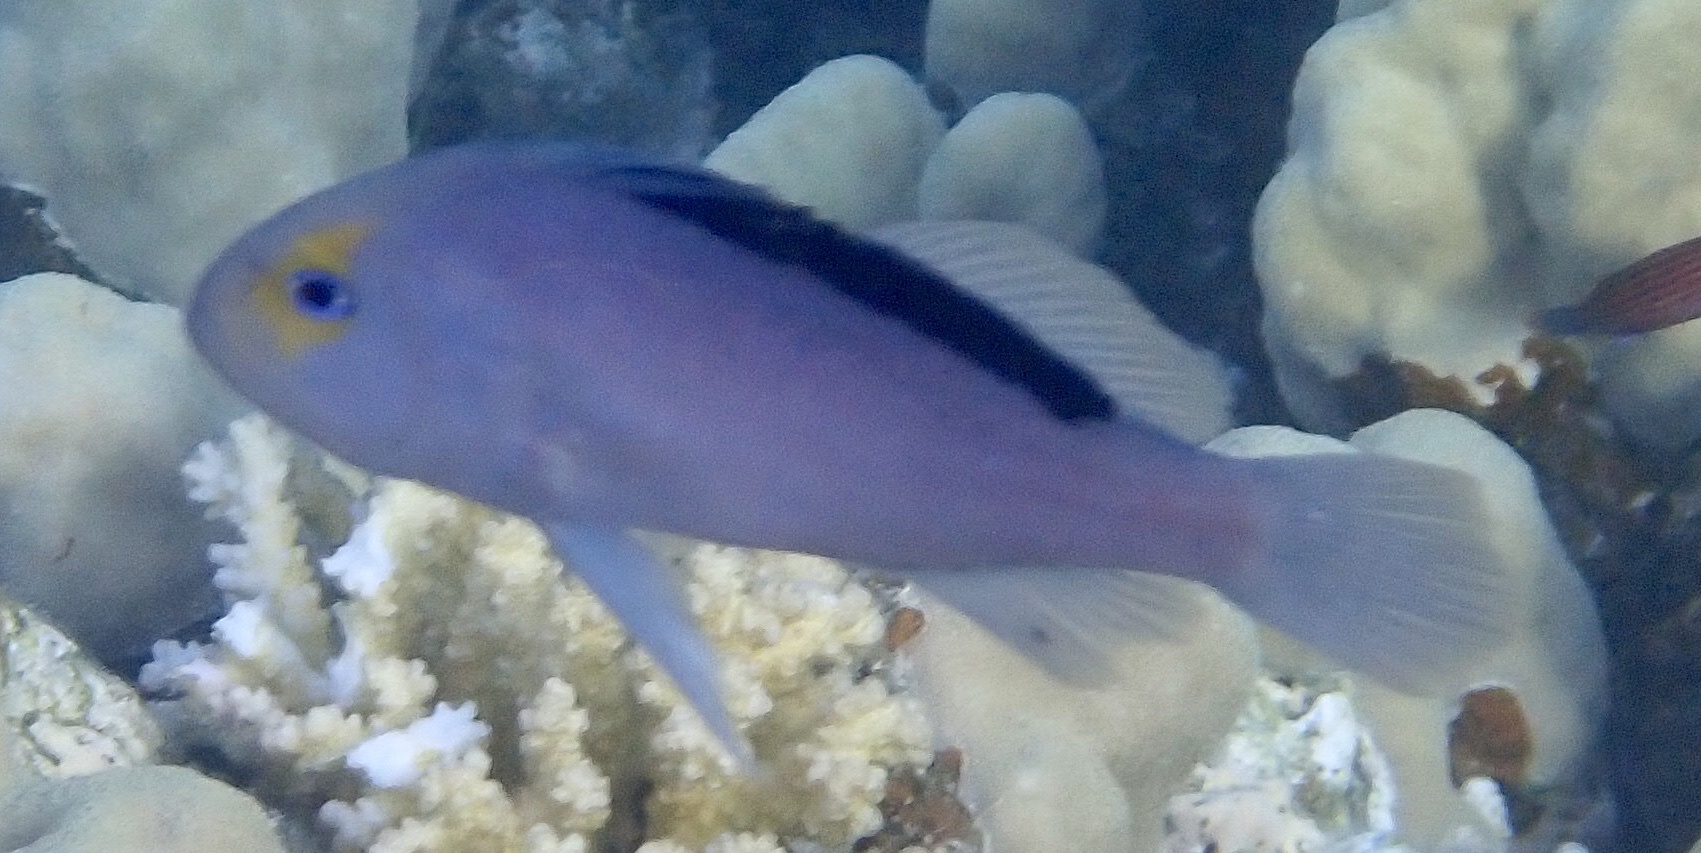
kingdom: Animalia
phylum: Chordata
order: Perciformes
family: Serranidae
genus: Diploprion
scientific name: Diploprion drachi
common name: Yellowface soapfish
